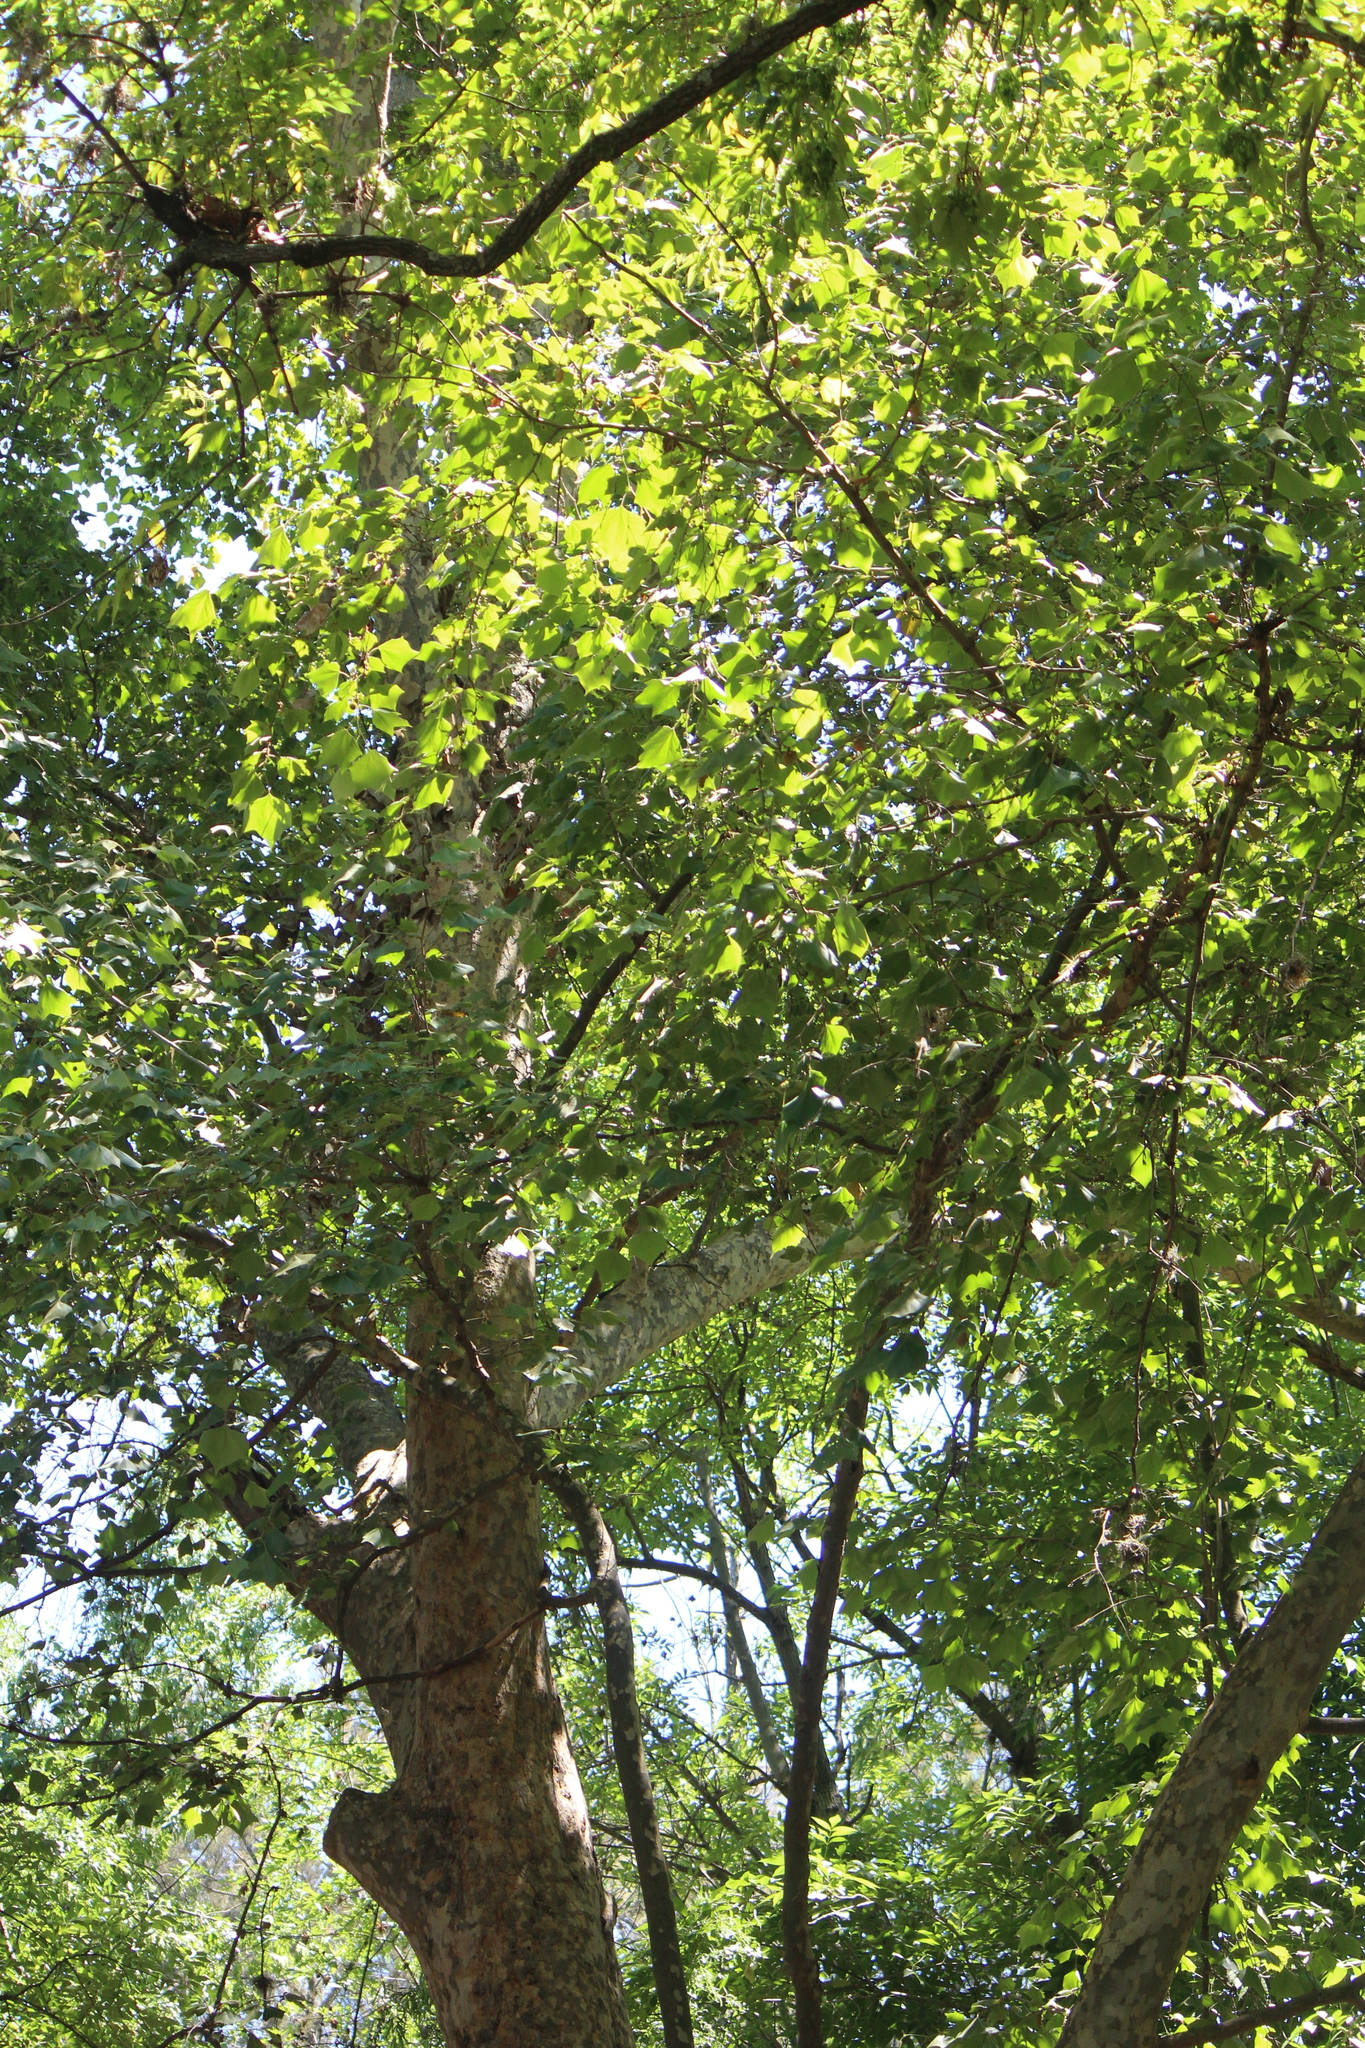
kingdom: Plantae
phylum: Tracheophyta
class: Magnoliopsida
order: Proteales
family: Platanaceae
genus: Platanus
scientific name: Platanus mexicana
